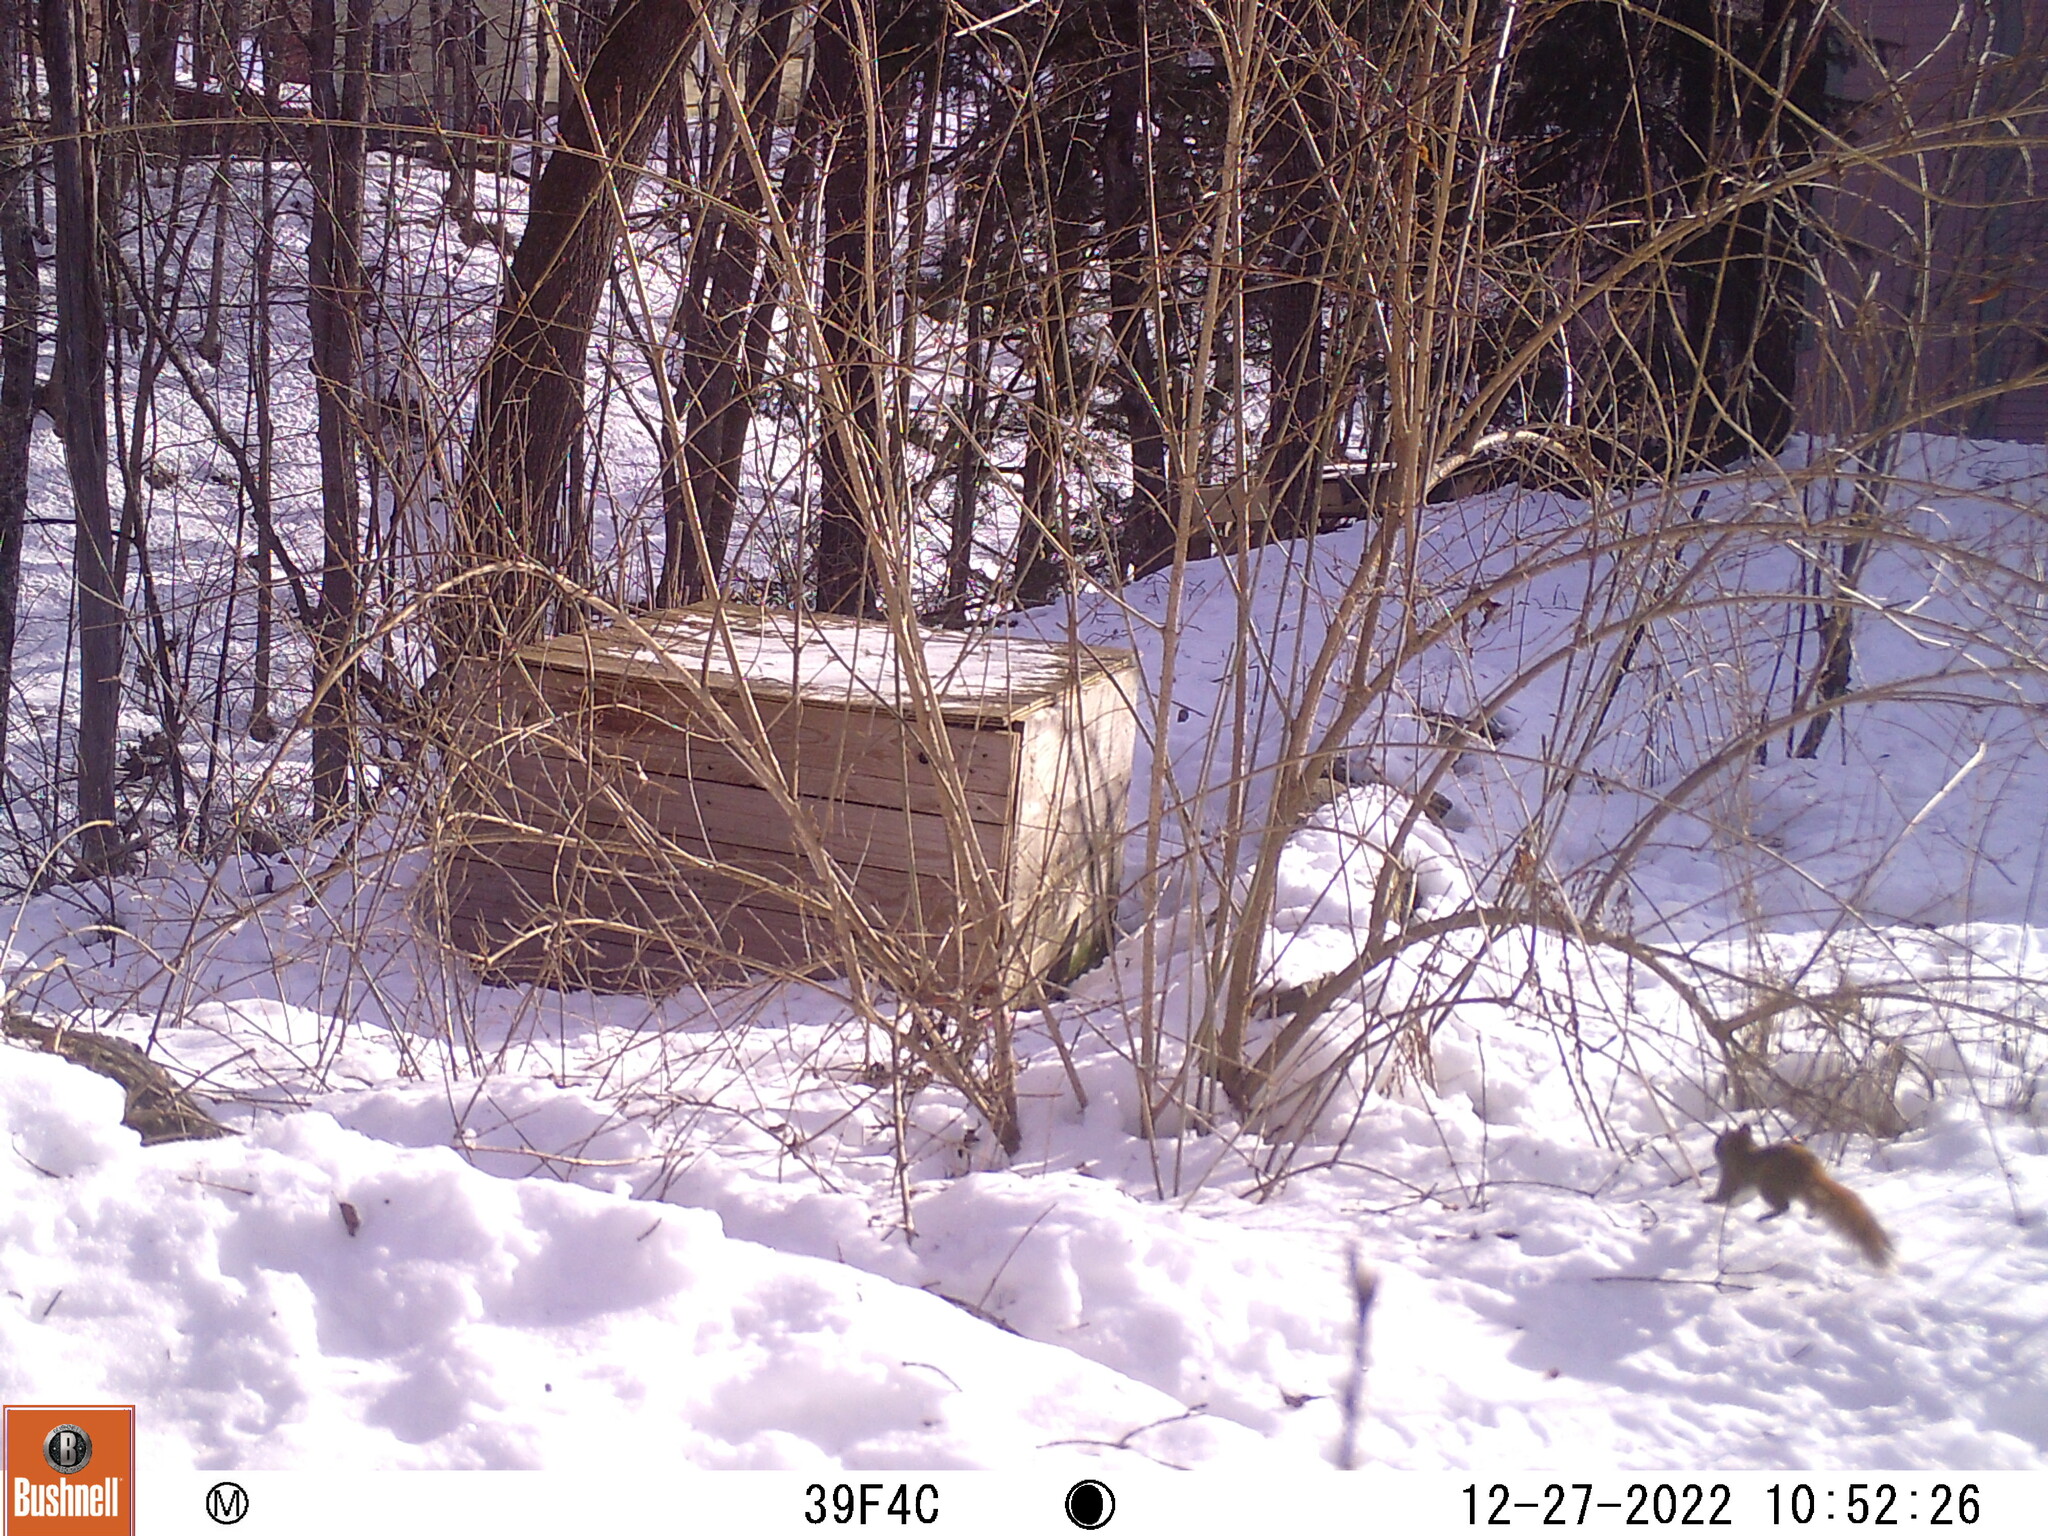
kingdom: Animalia
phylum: Chordata
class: Mammalia
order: Rodentia
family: Sciuridae
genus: Tamiasciurus
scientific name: Tamiasciurus hudsonicus
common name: Red squirrel
